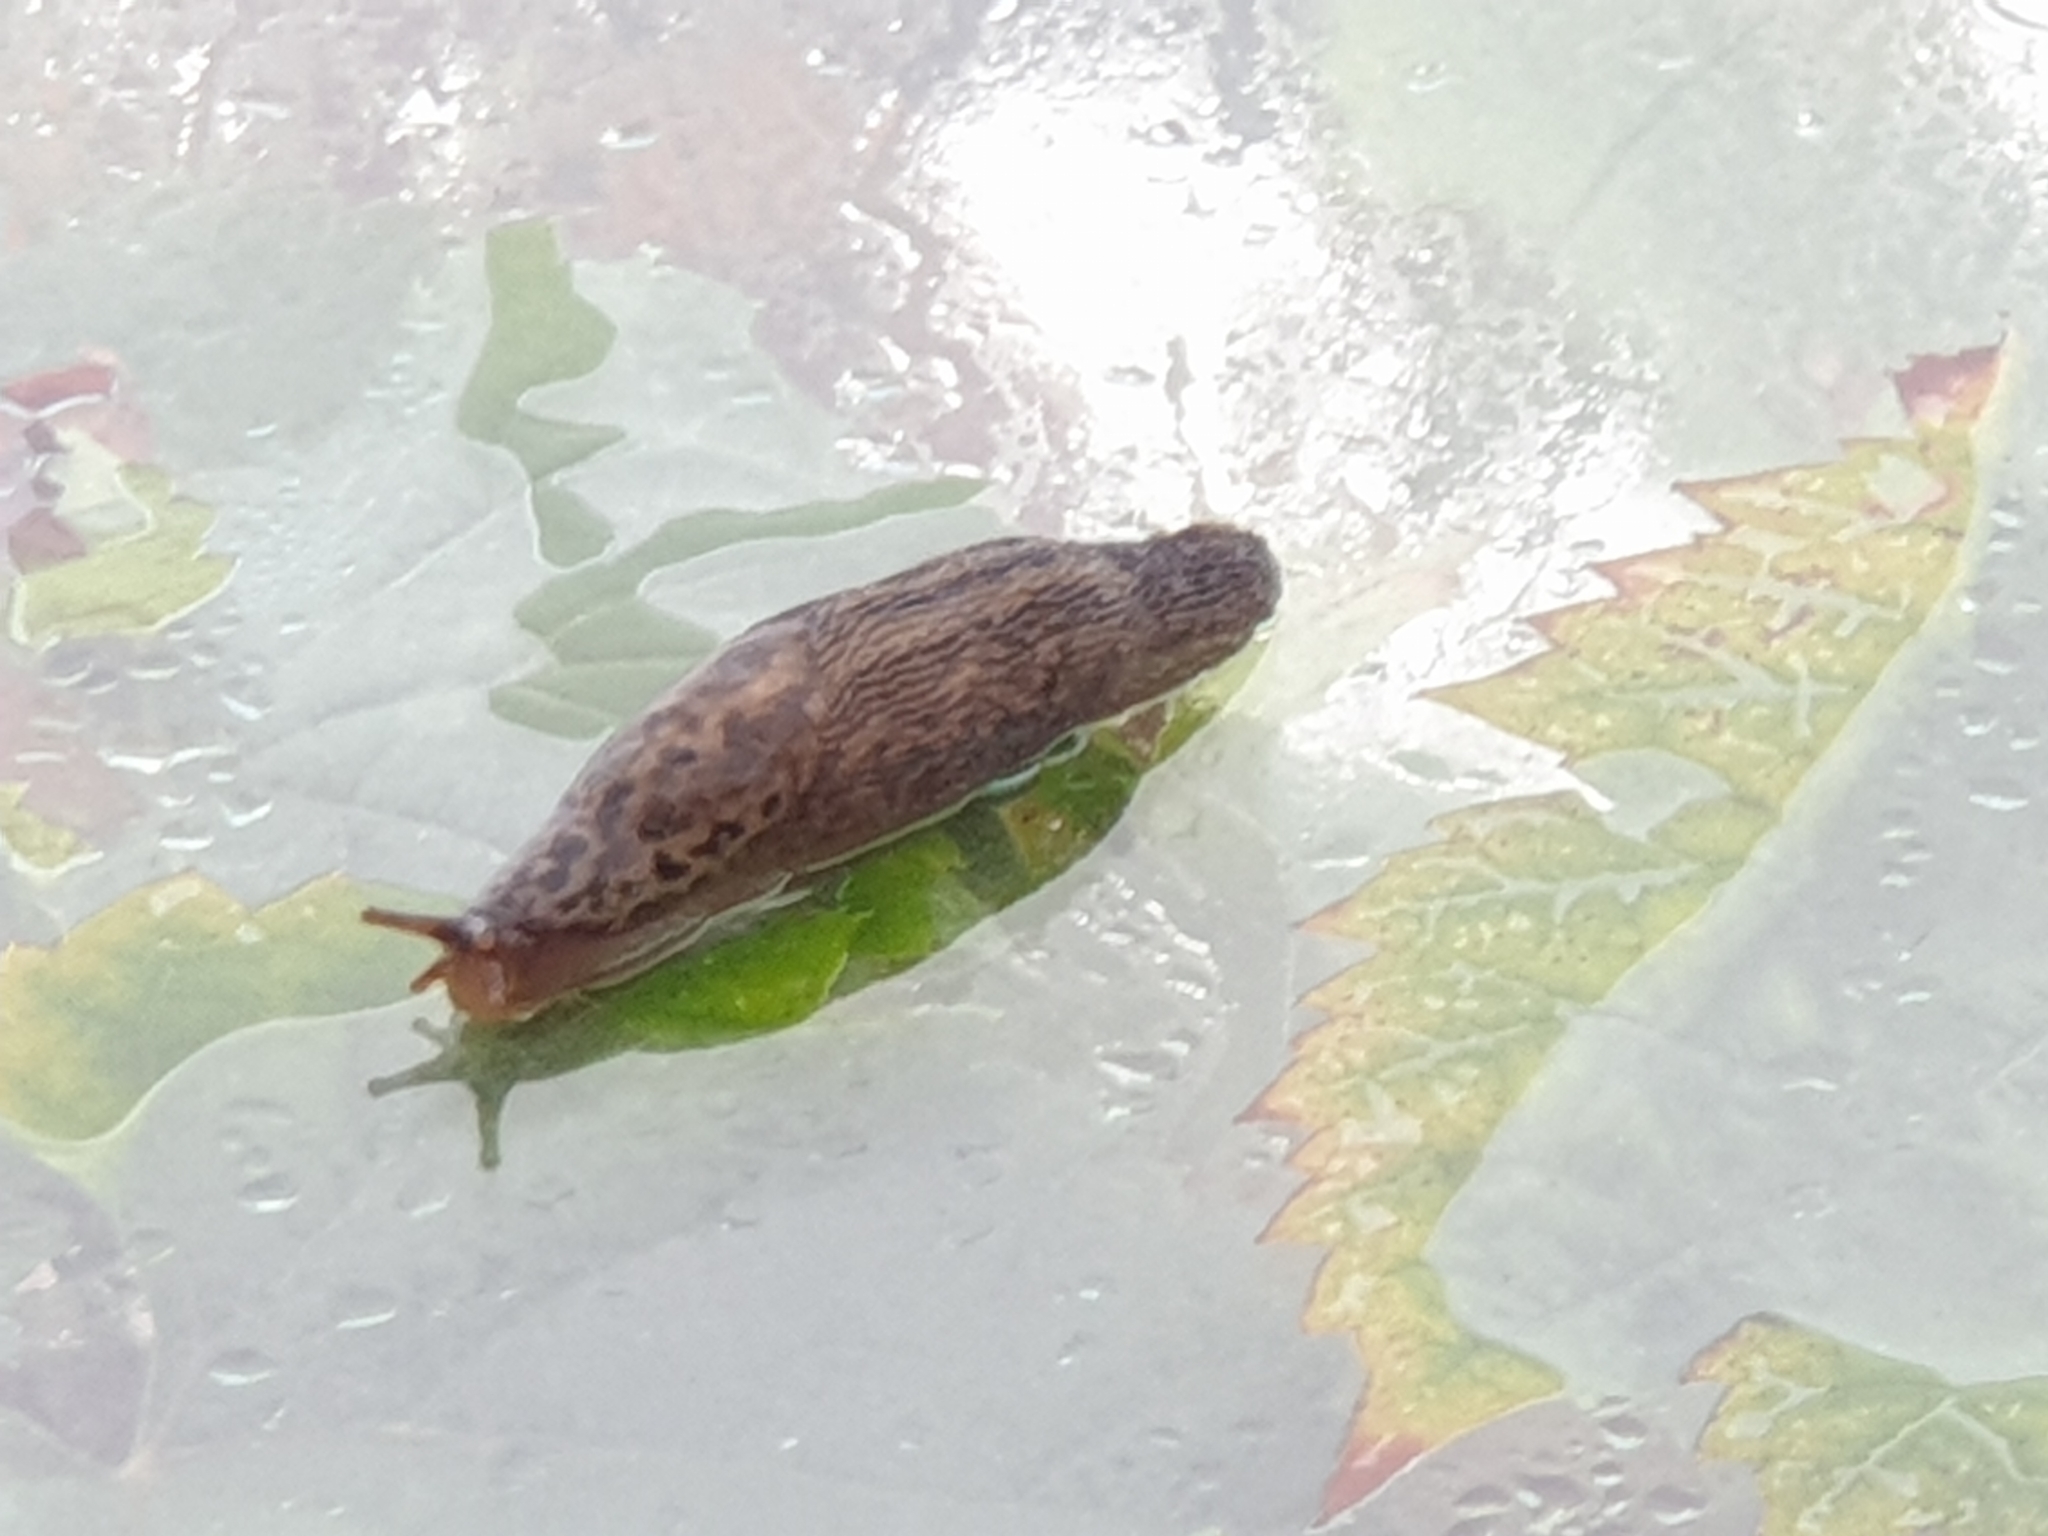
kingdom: Animalia
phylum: Mollusca
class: Gastropoda
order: Stylommatophora
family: Limacidae
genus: Limax
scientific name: Limax maximus
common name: Great grey slug
